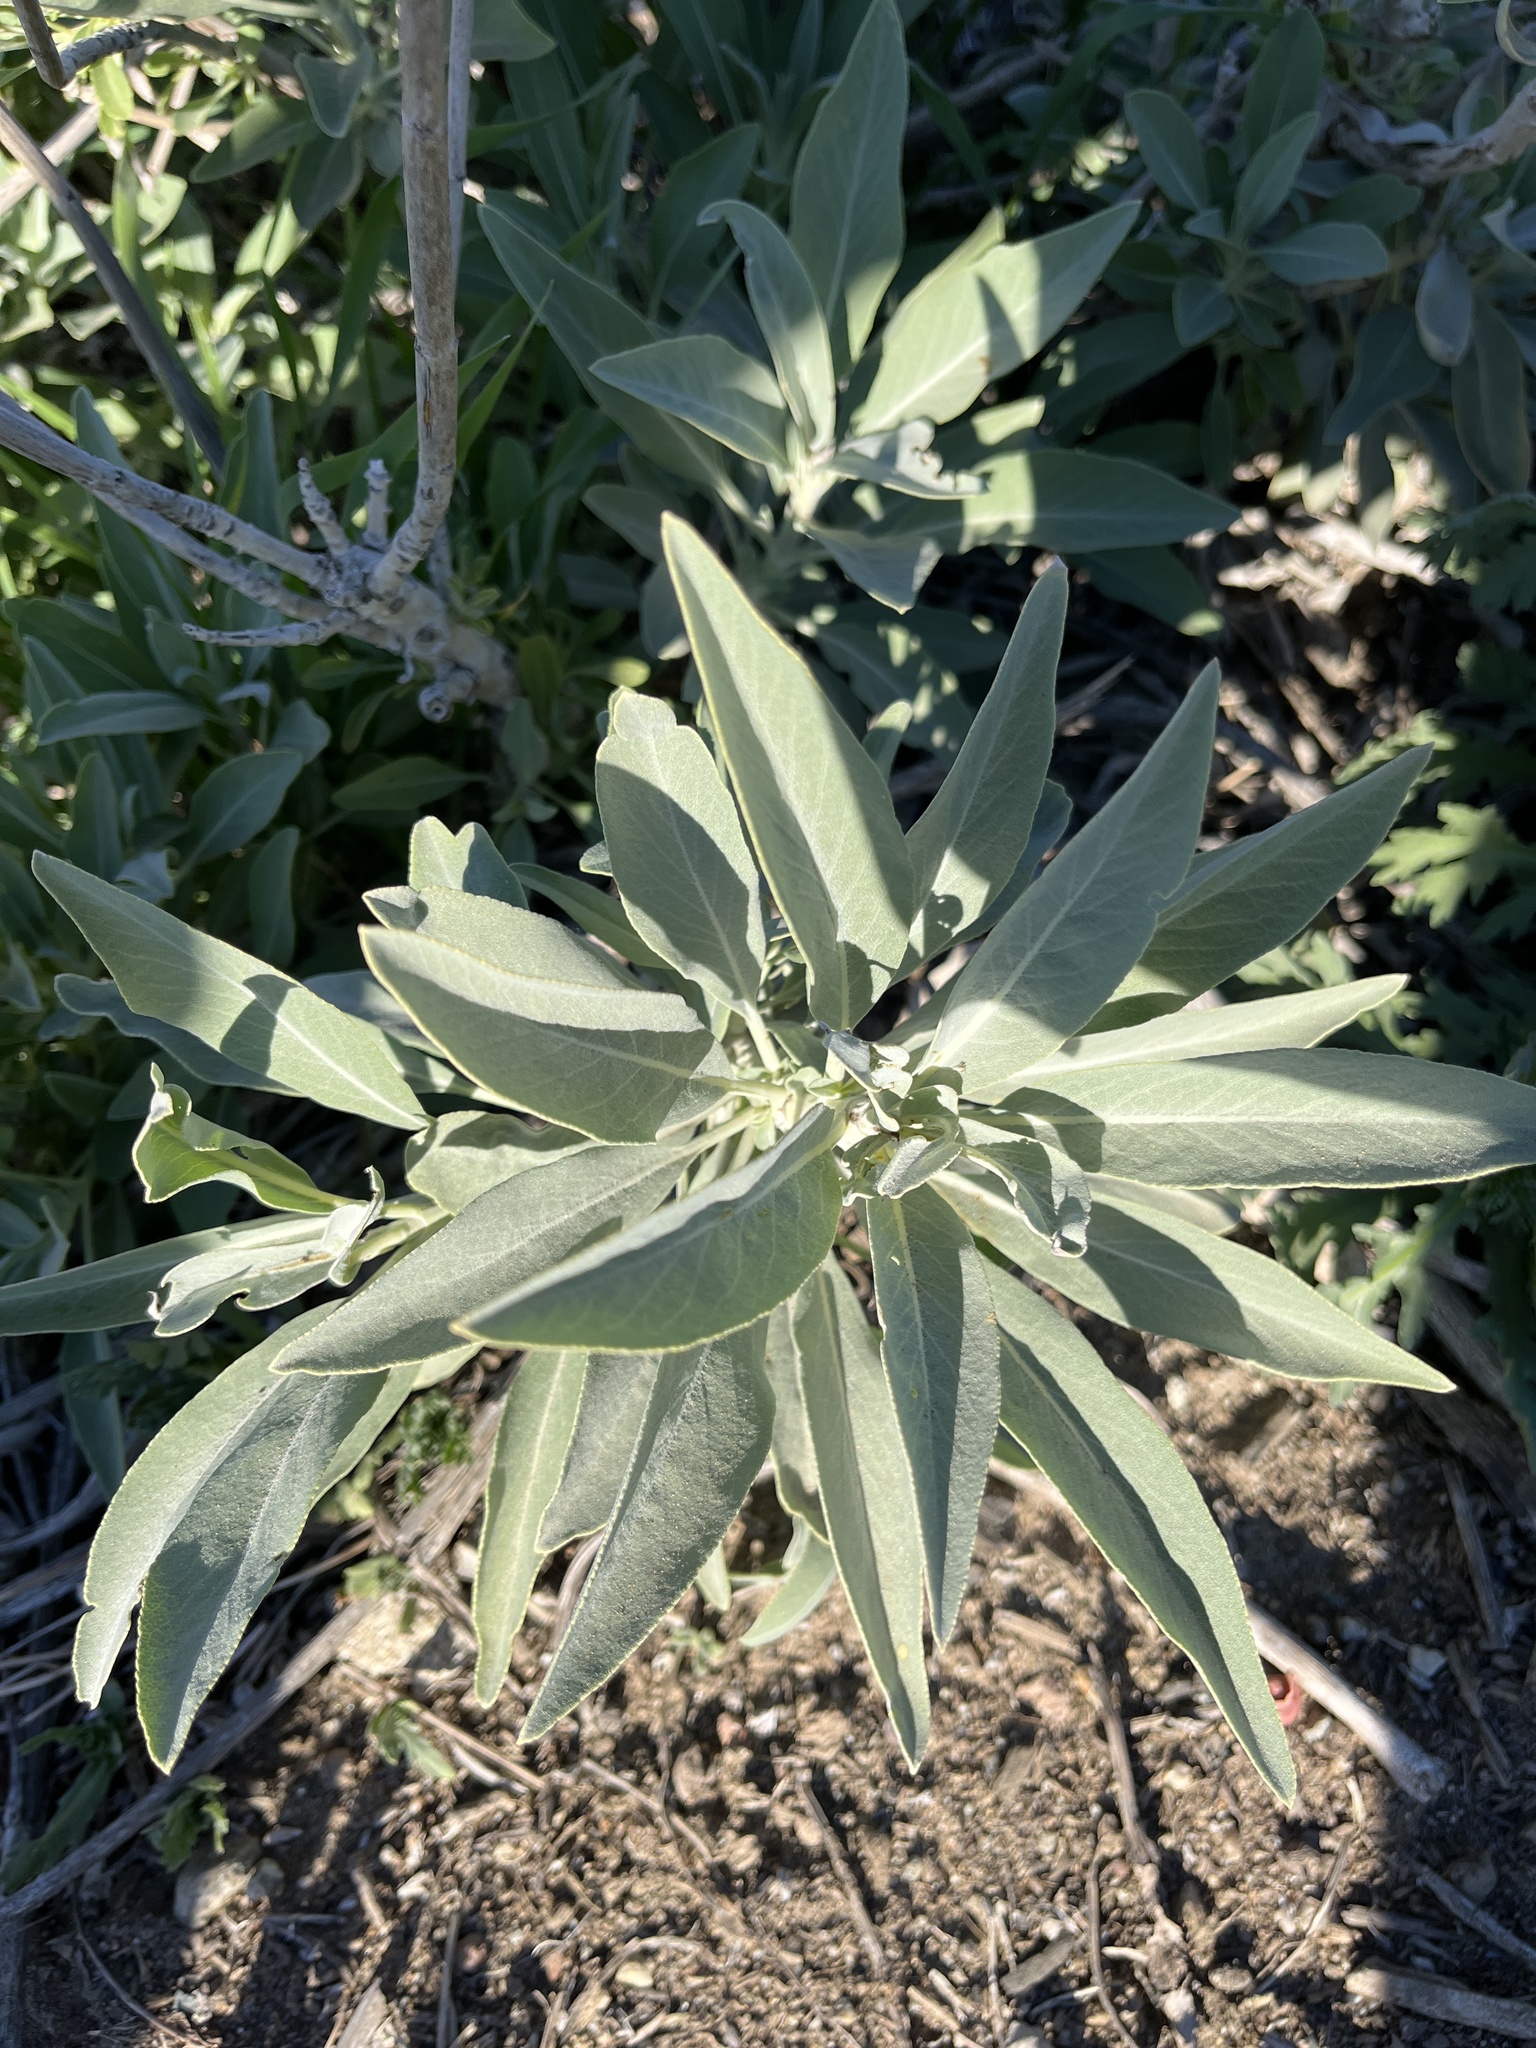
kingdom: Plantae
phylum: Tracheophyta
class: Magnoliopsida
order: Lamiales
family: Lamiaceae
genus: Salvia
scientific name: Salvia apiana
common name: White sage
